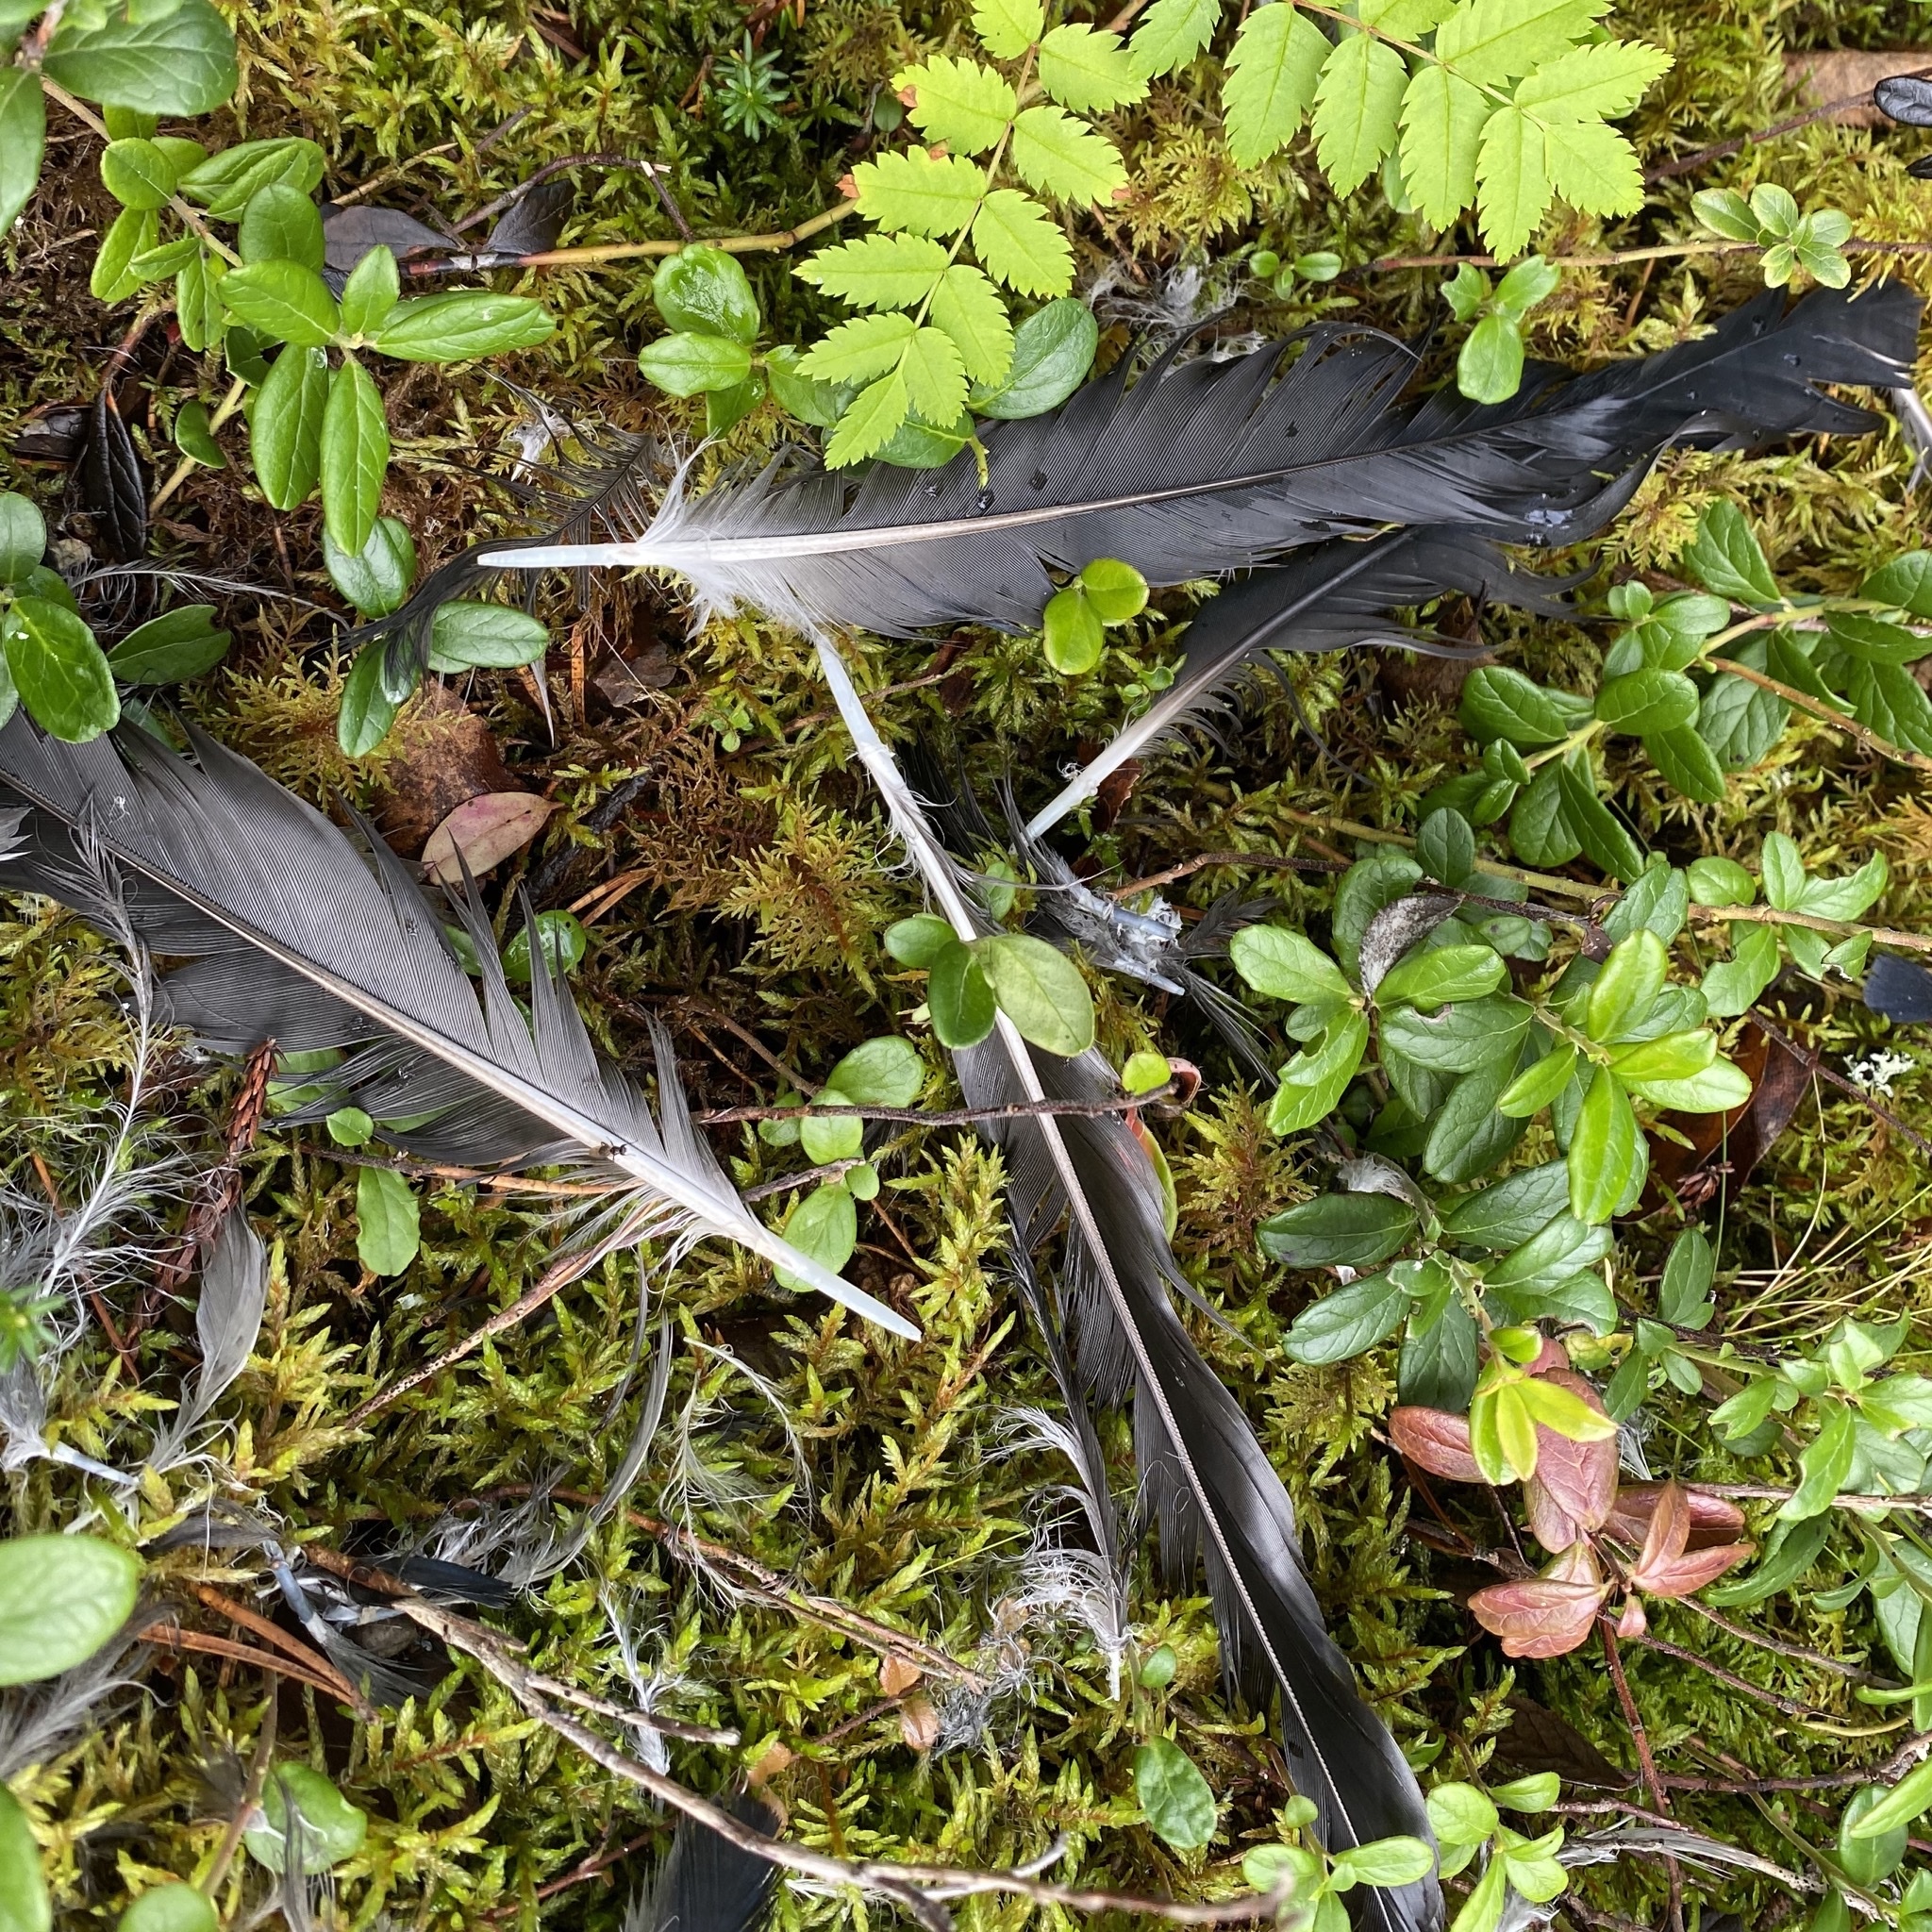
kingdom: Animalia
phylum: Chordata
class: Aves
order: Passeriformes
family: Corvidae
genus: Corvus
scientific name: Corvus cornix
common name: Hooded crow
